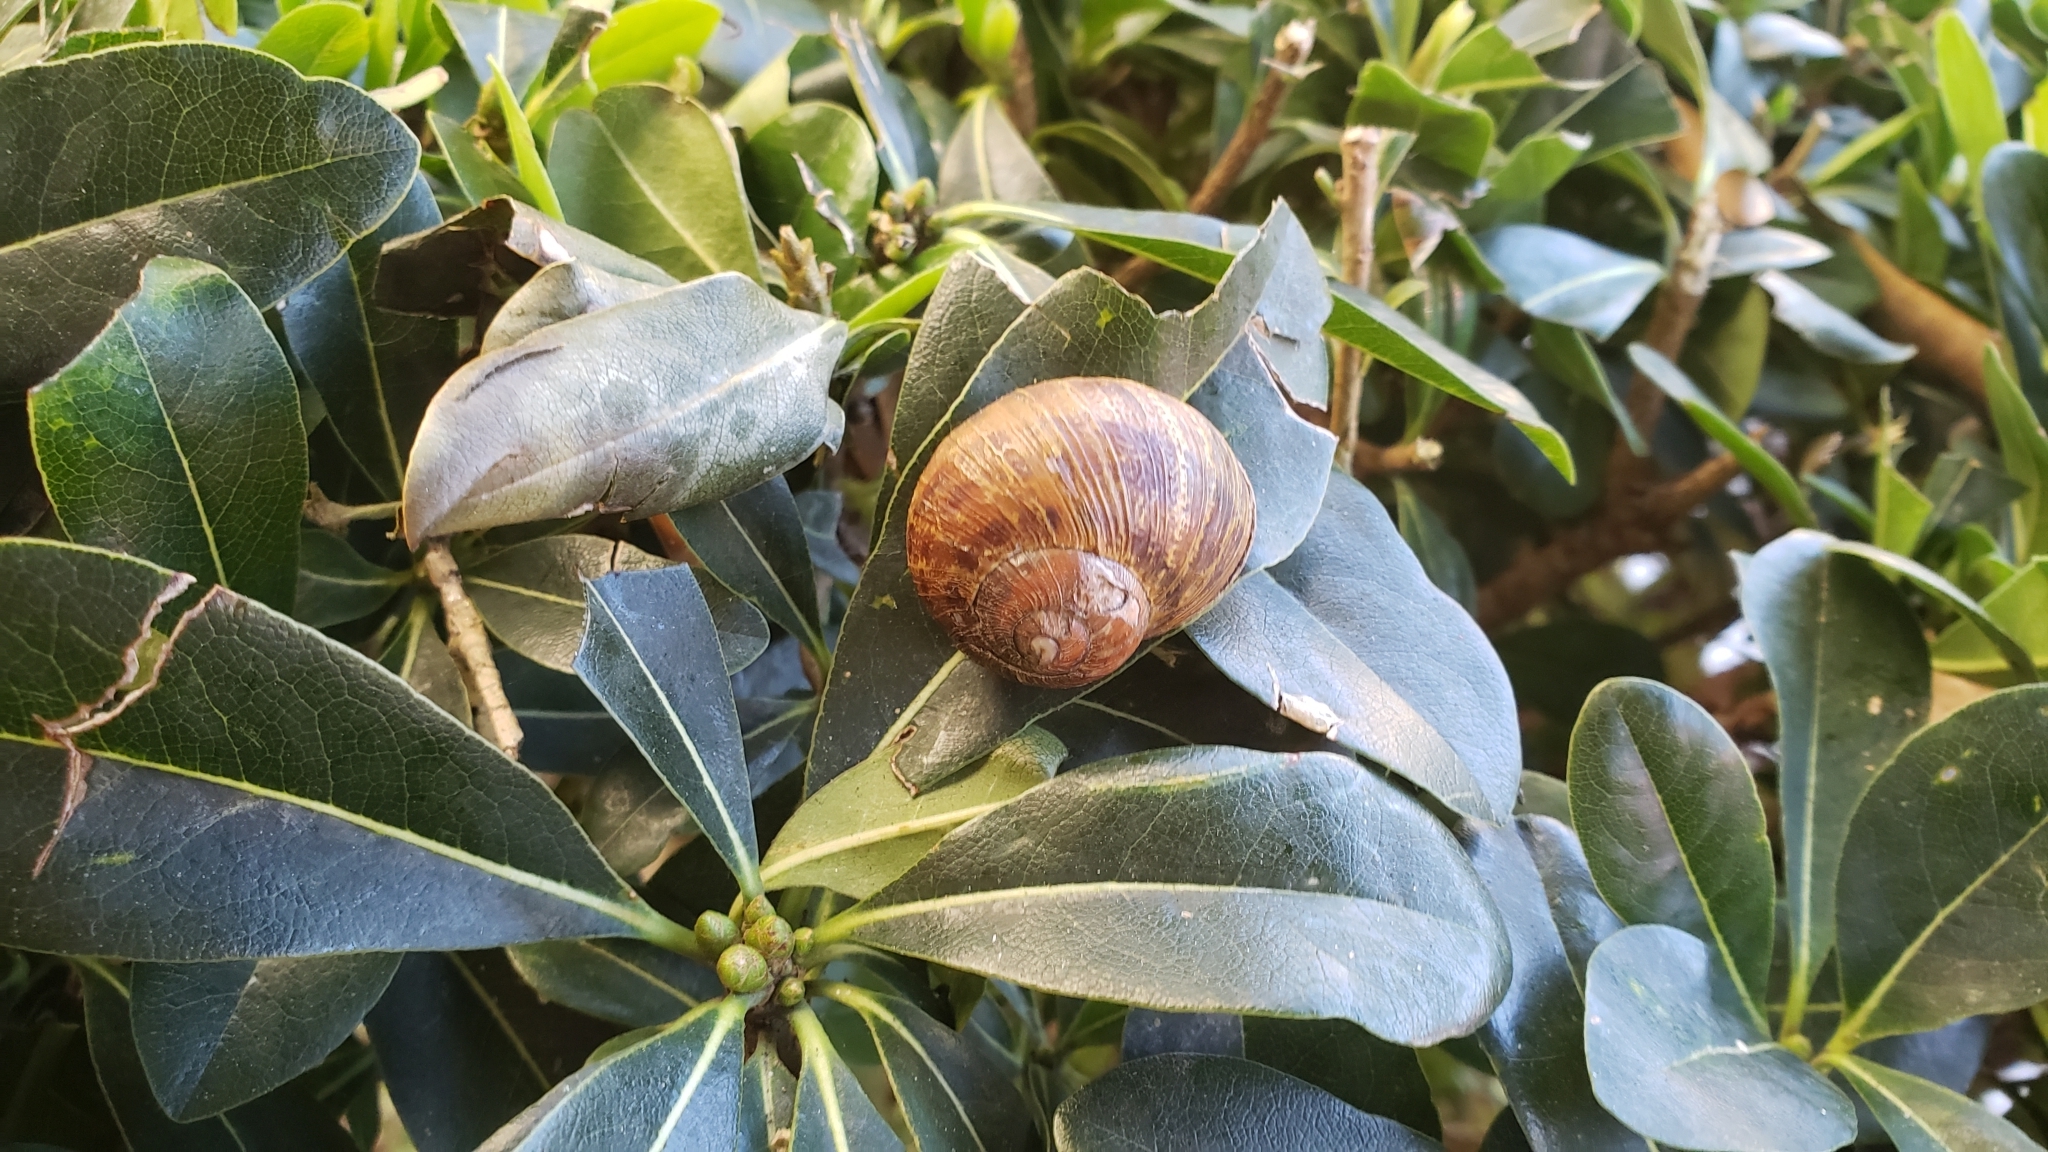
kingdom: Animalia
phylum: Mollusca
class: Gastropoda
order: Stylommatophora
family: Helicidae
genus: Cornu
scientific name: Cornu aspersum
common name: Brown garden snail
